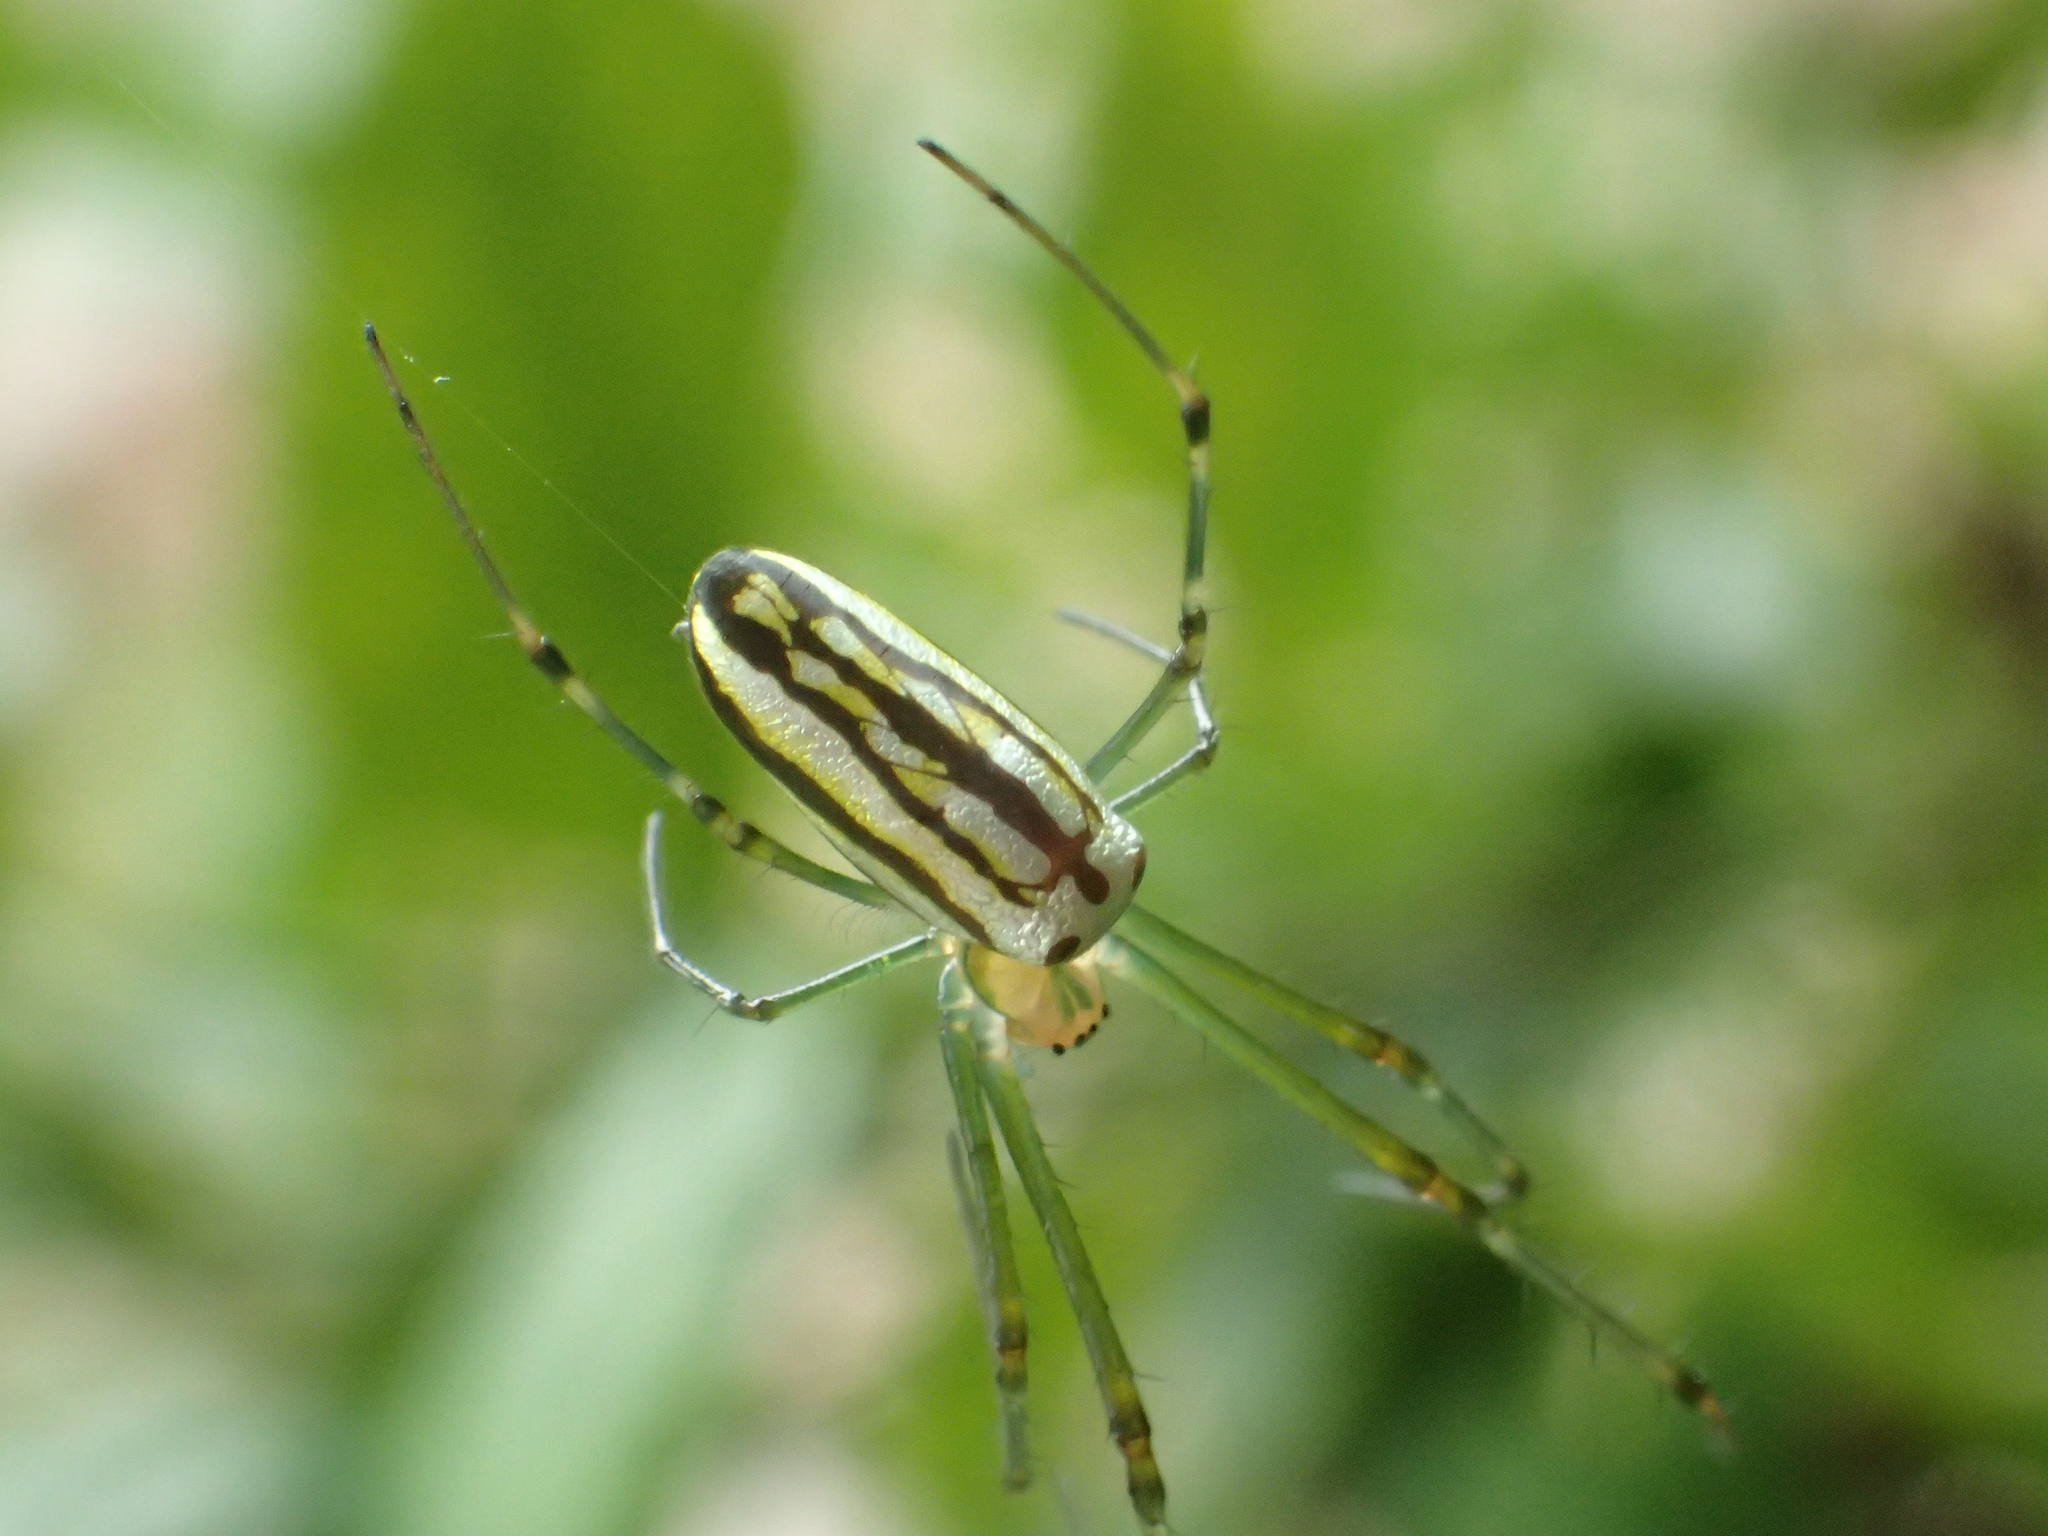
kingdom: Animalia
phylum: Arthropoda
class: Arachnida
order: Araneae
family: Tetragnathidae
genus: Leucauge
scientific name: Leucauge blanda
